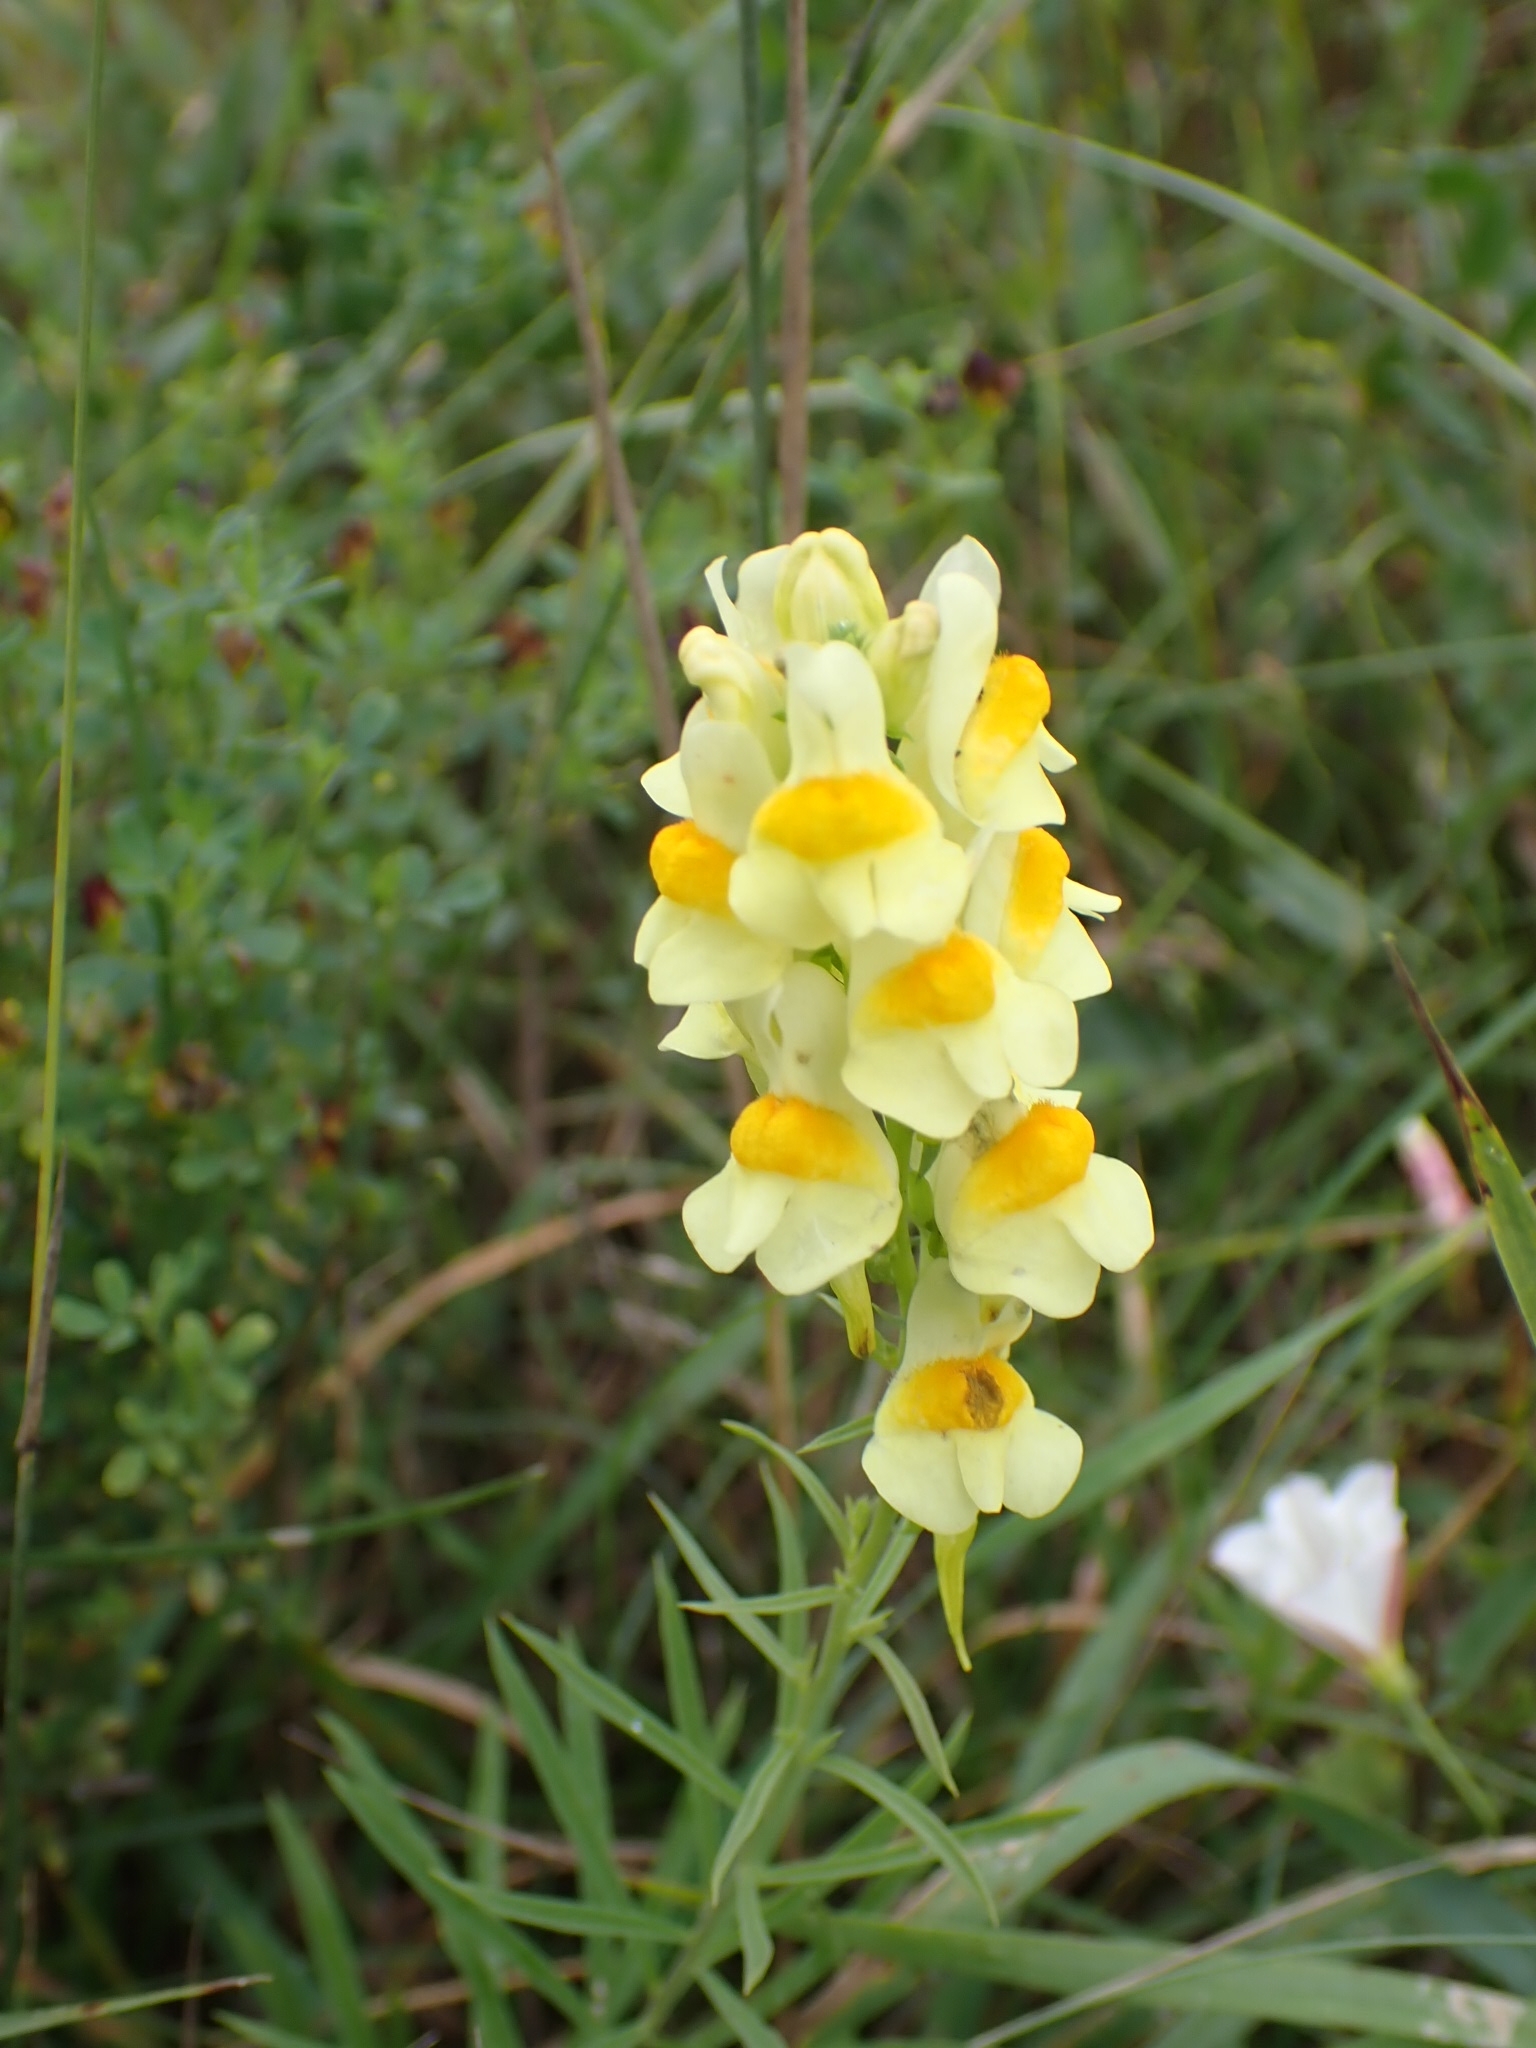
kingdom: Plantae
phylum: Tracheophyta
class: Magnoliopsida
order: Lamiales
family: Plantaginaceae
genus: Linaria
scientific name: Linaria vulgaris
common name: Butter and eggs
